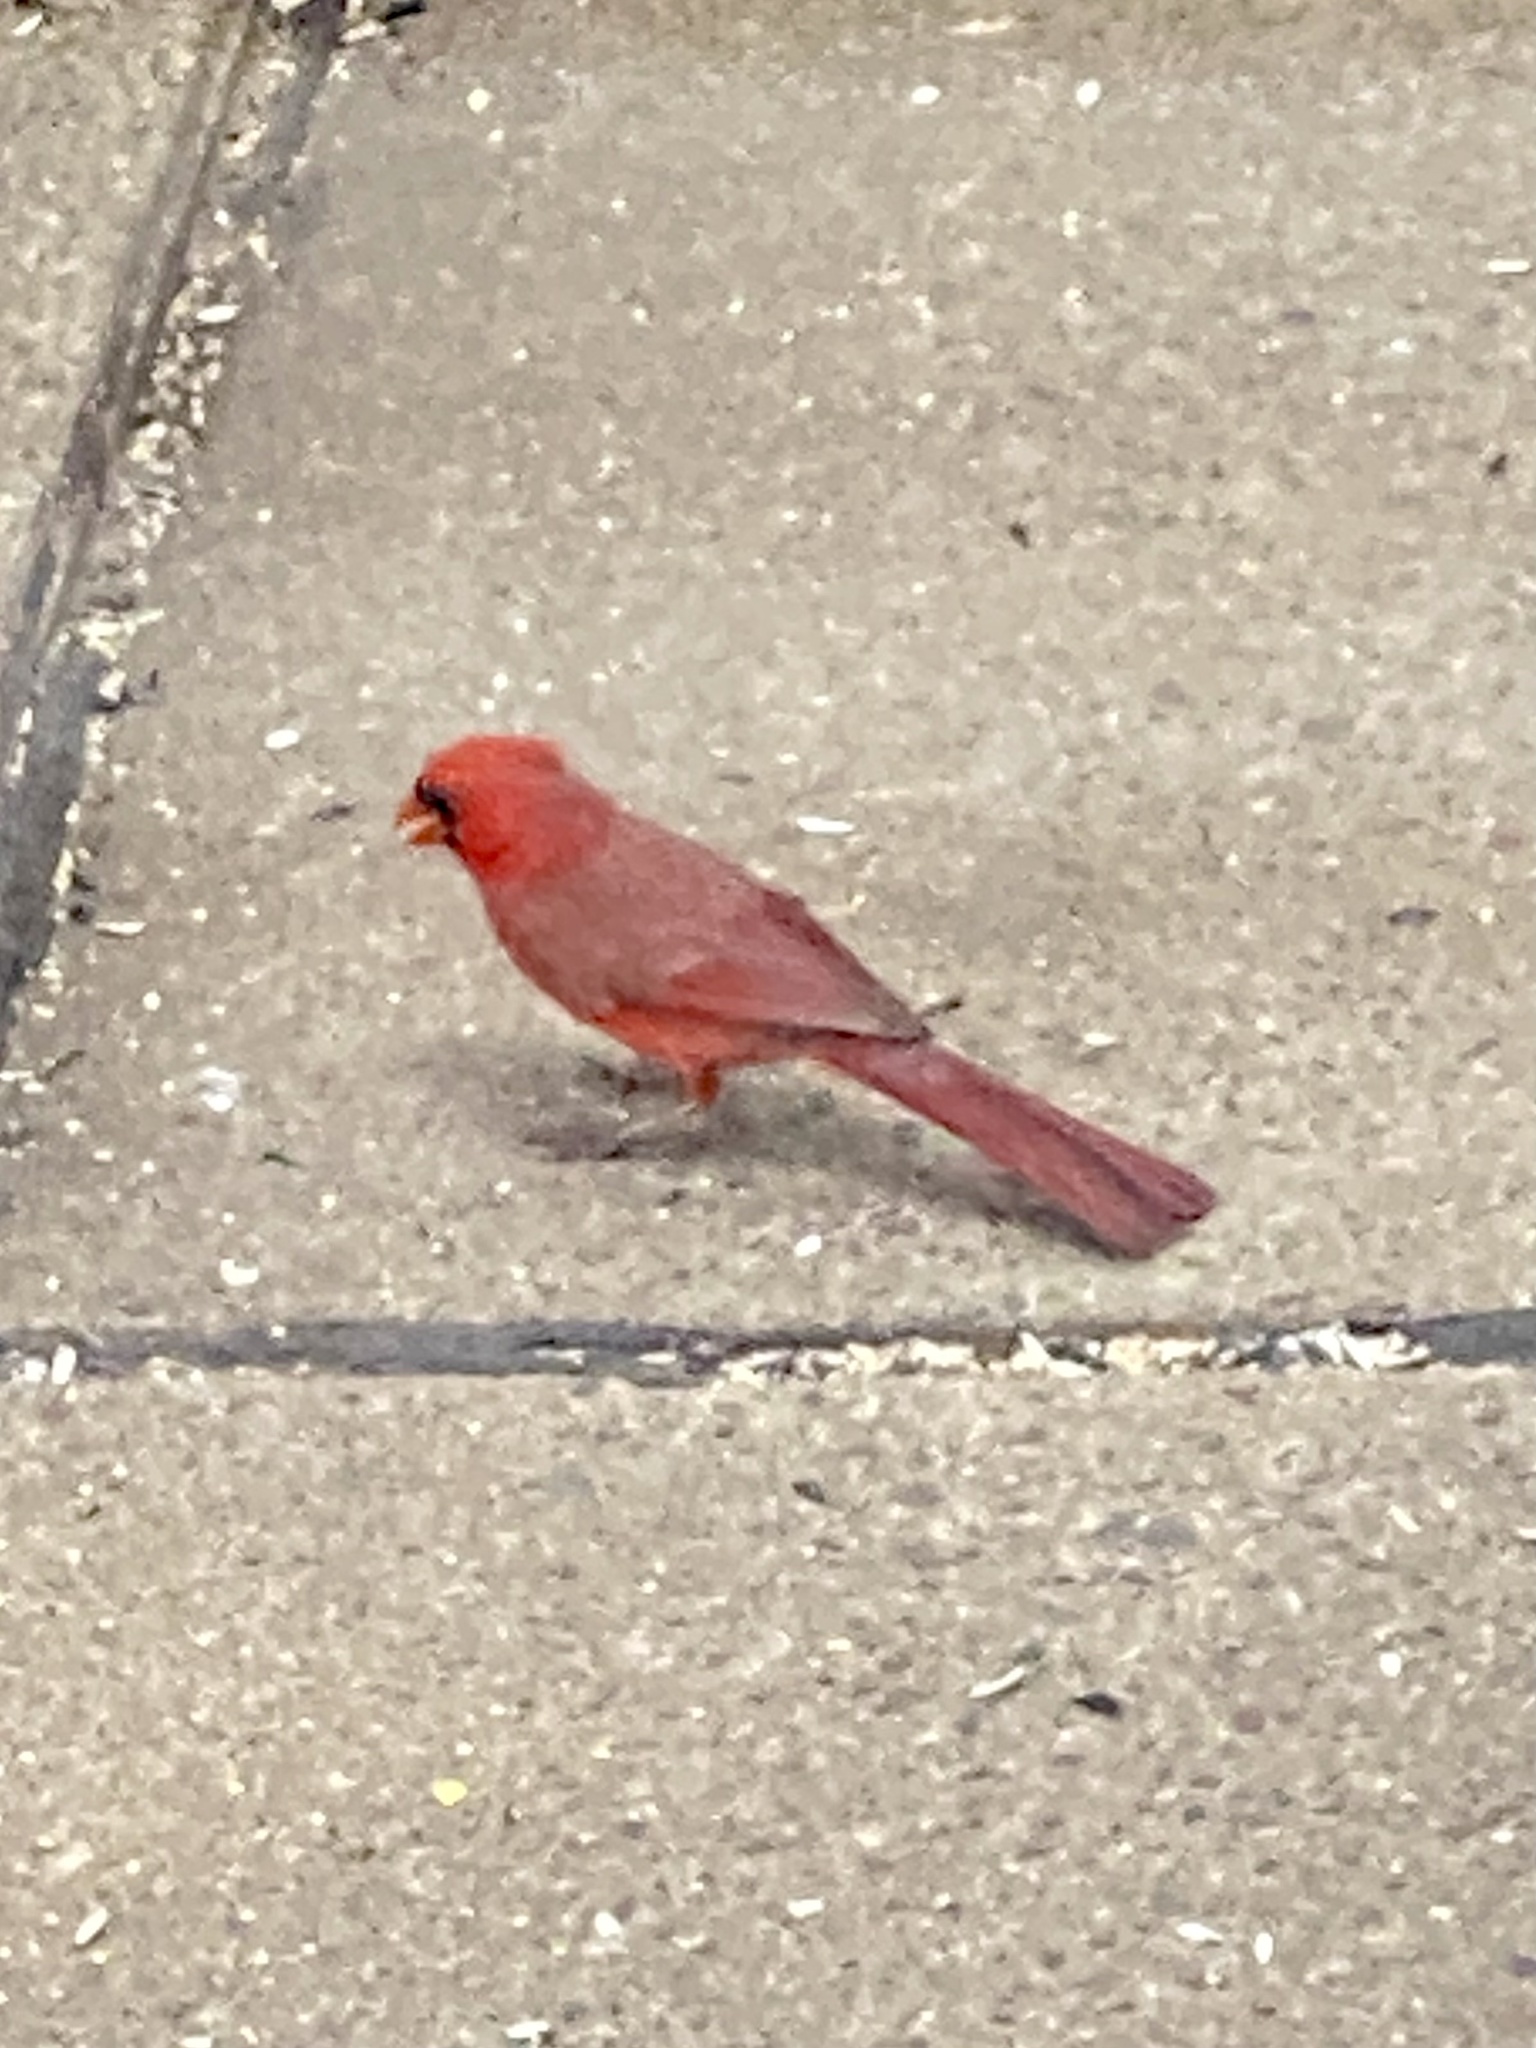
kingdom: Animalia
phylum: Chordata
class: Aves
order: Passeriformes
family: Cardinalidae
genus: Cardinalis
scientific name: Cardinalis cardinalis
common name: Northern cardinal
